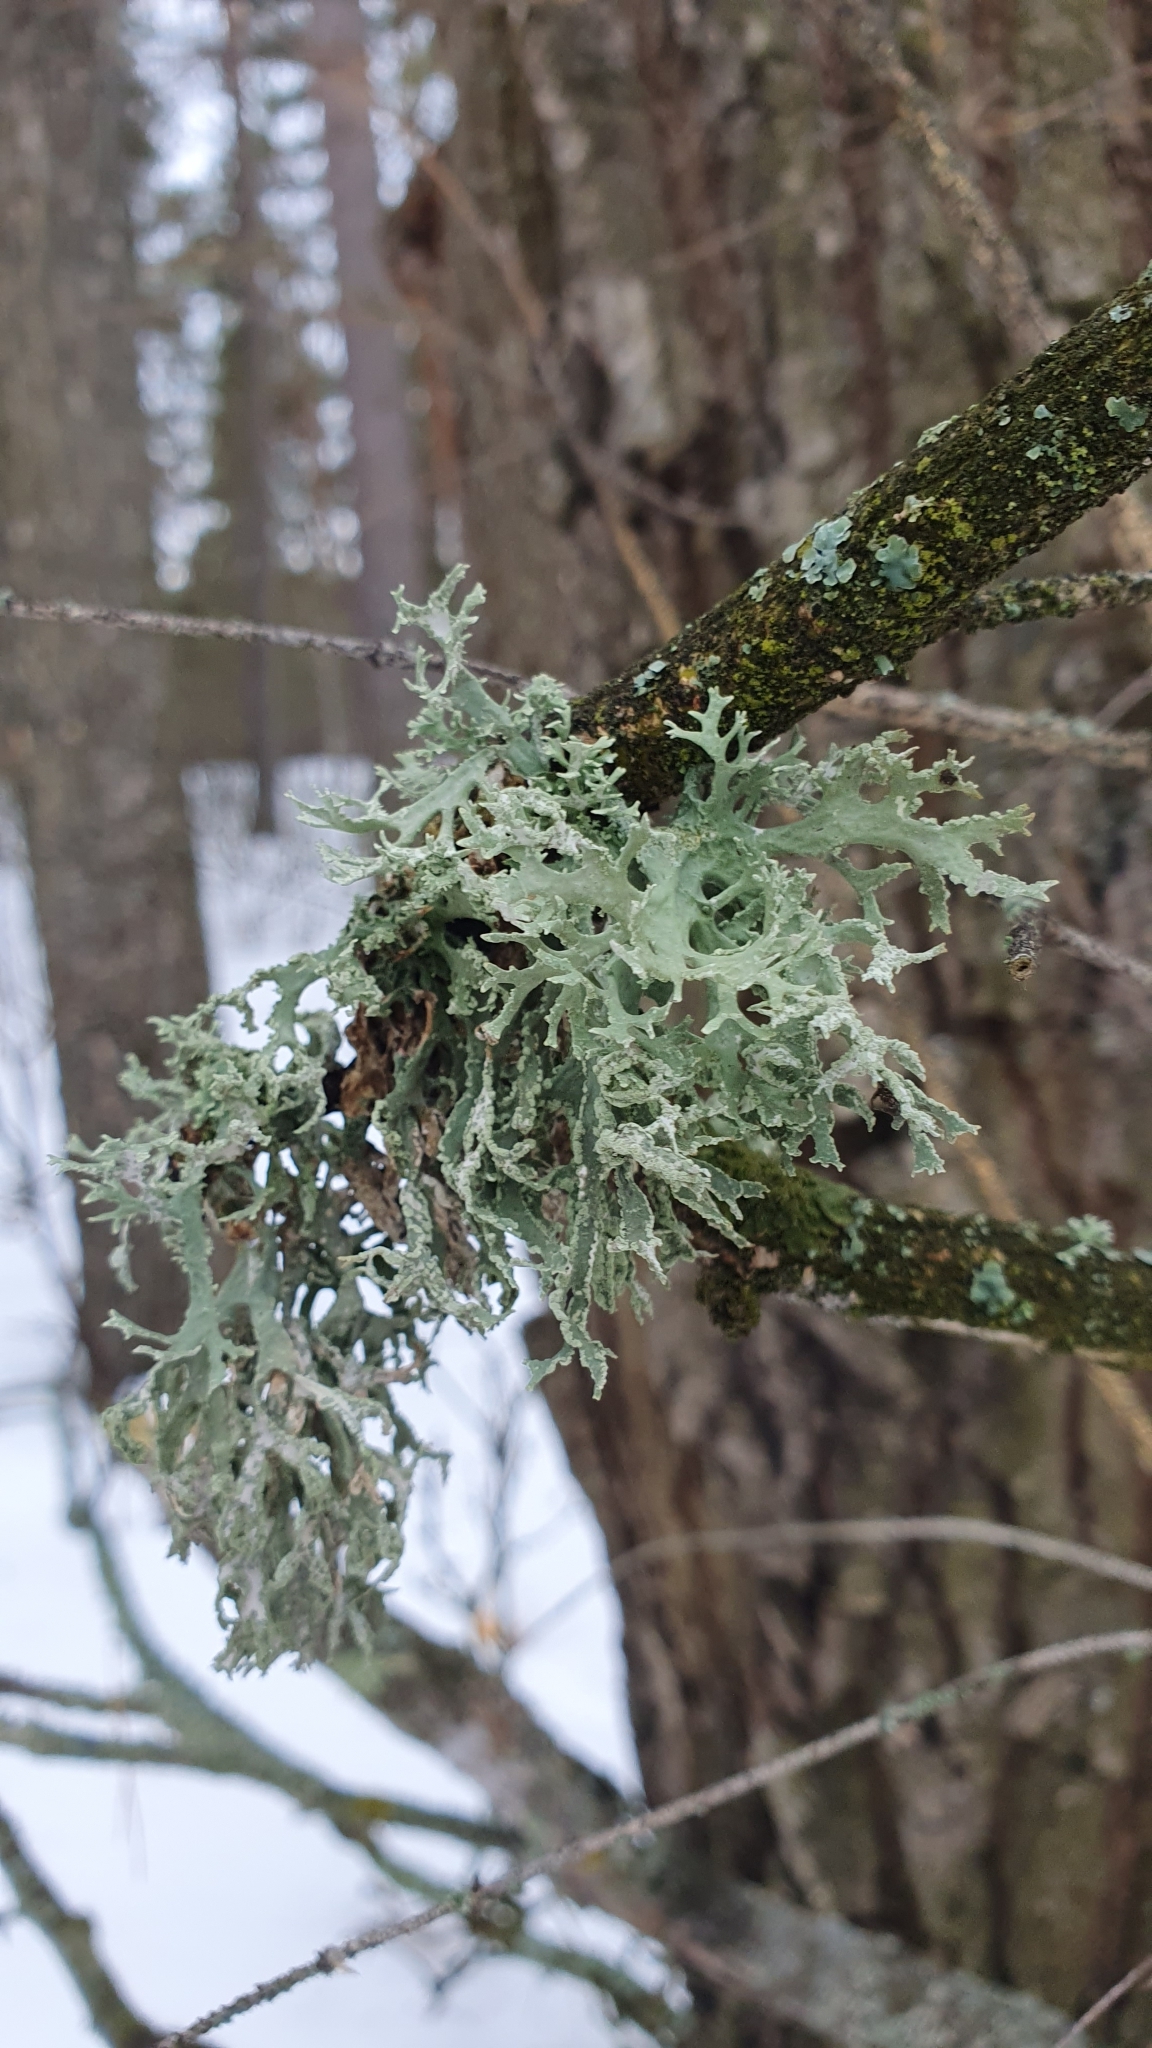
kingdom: Fungi
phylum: Ascomycota
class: Lecanoromycetes
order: Lecanorales
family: Parmeliaceae
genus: Evernia
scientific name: Evernia prunastri
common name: Oak moss
